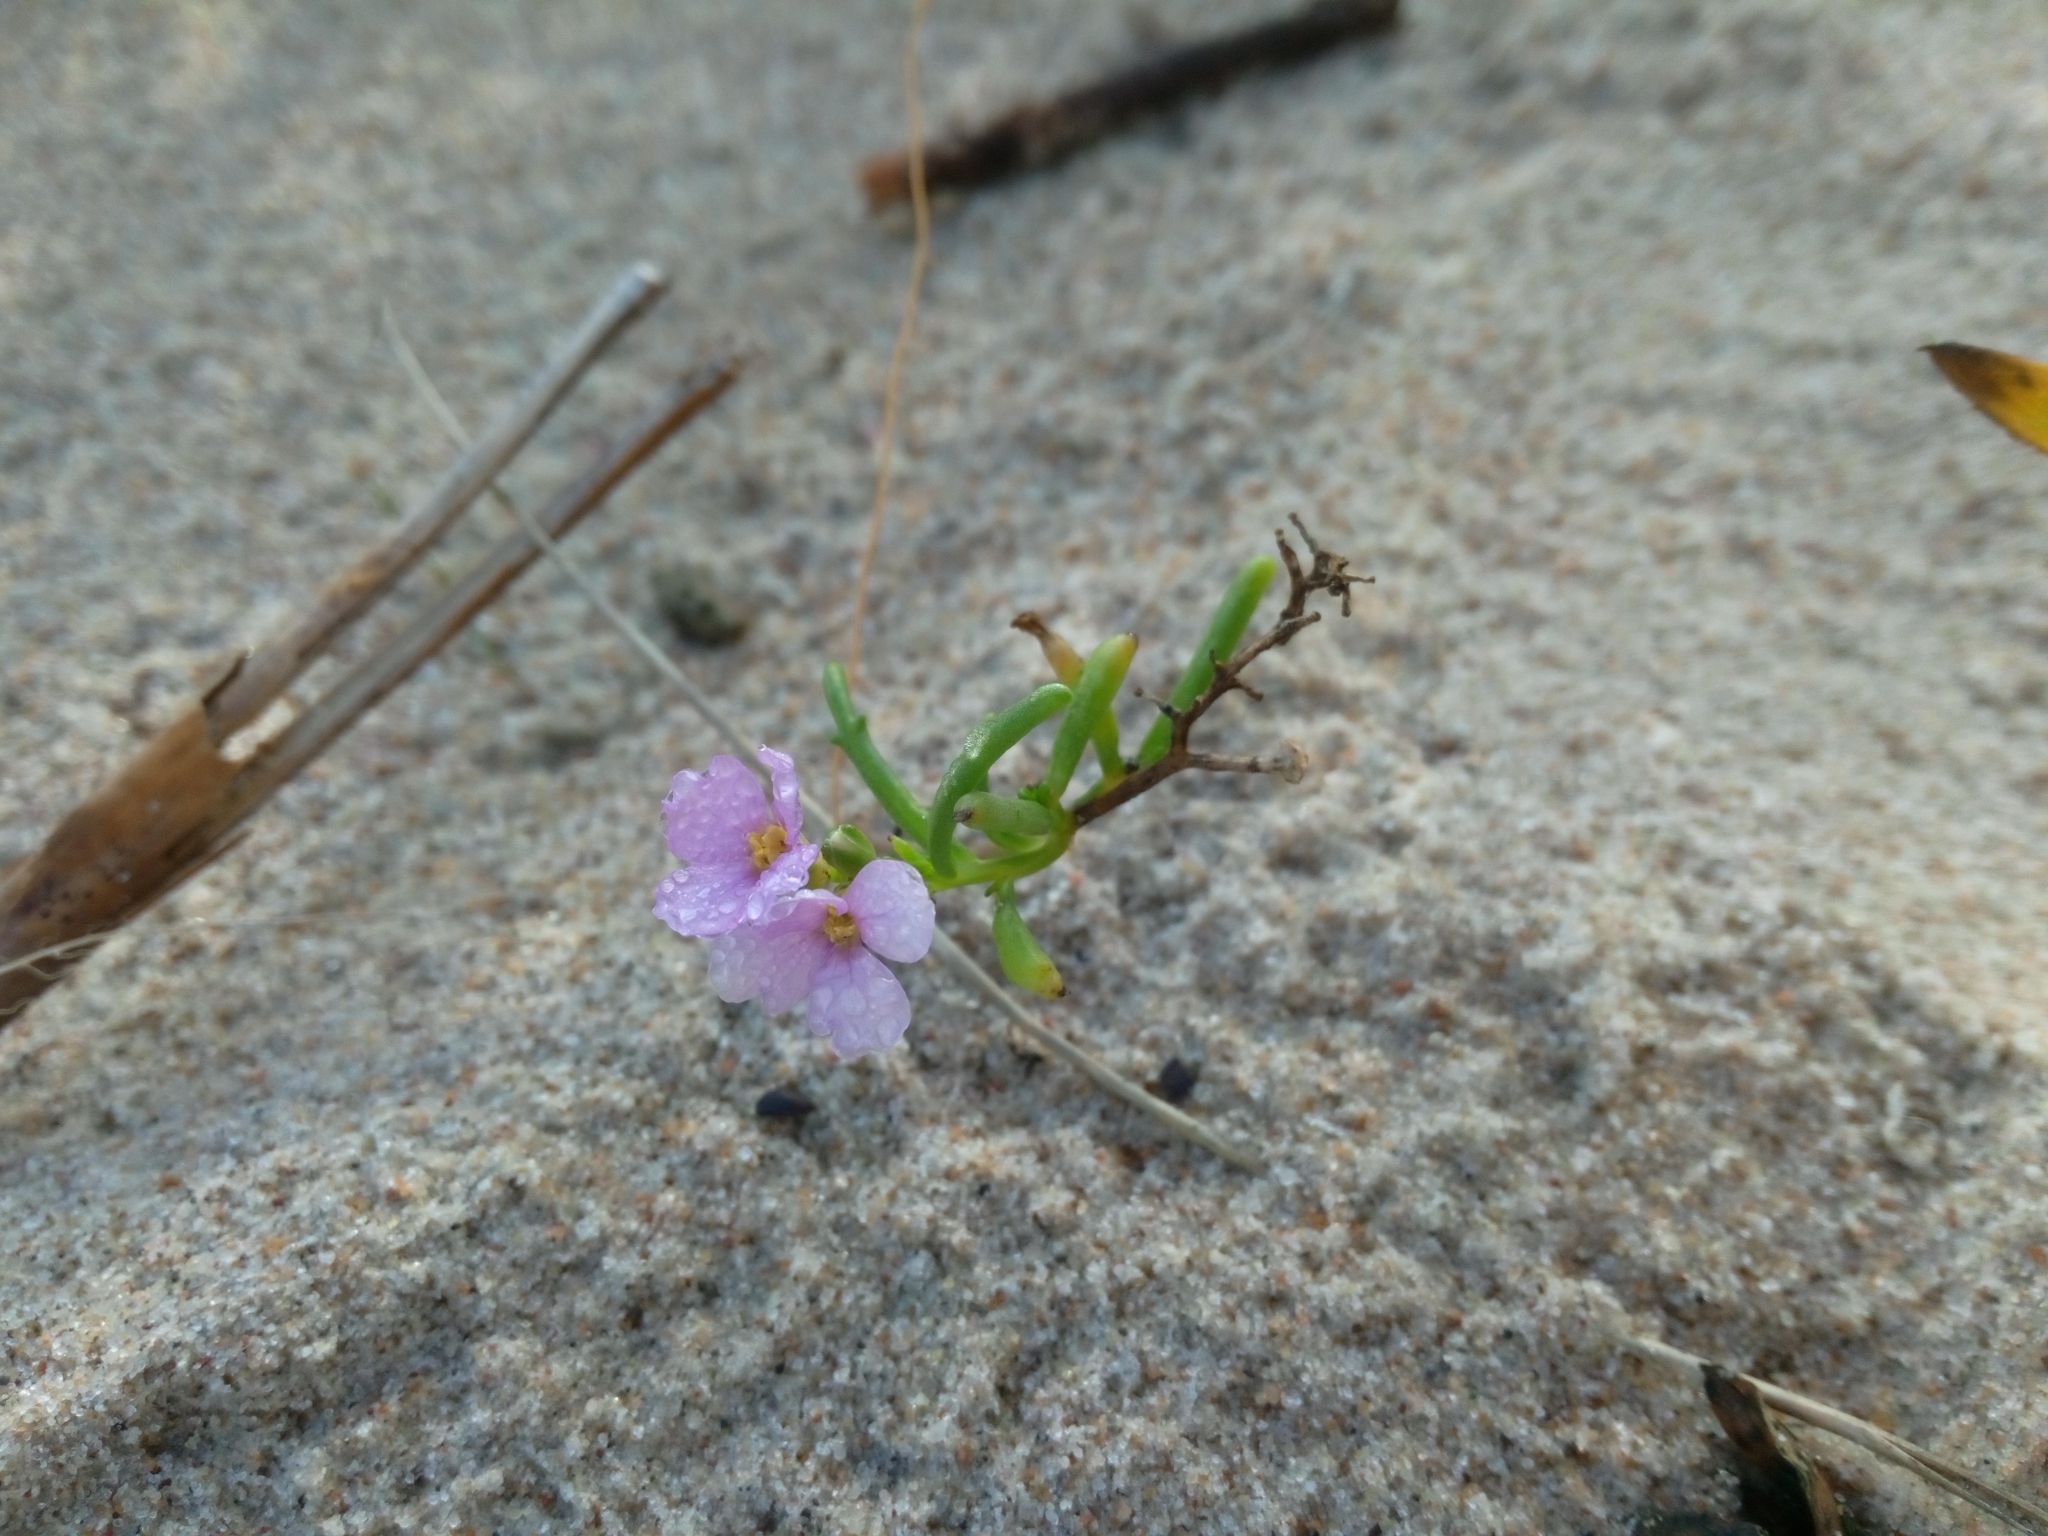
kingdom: Plantae
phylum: Tracheophyta
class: Magnoliopsida
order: Brassicales
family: Brassicaceae
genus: Cakile
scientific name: Cakile maritima
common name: Sea rocket
